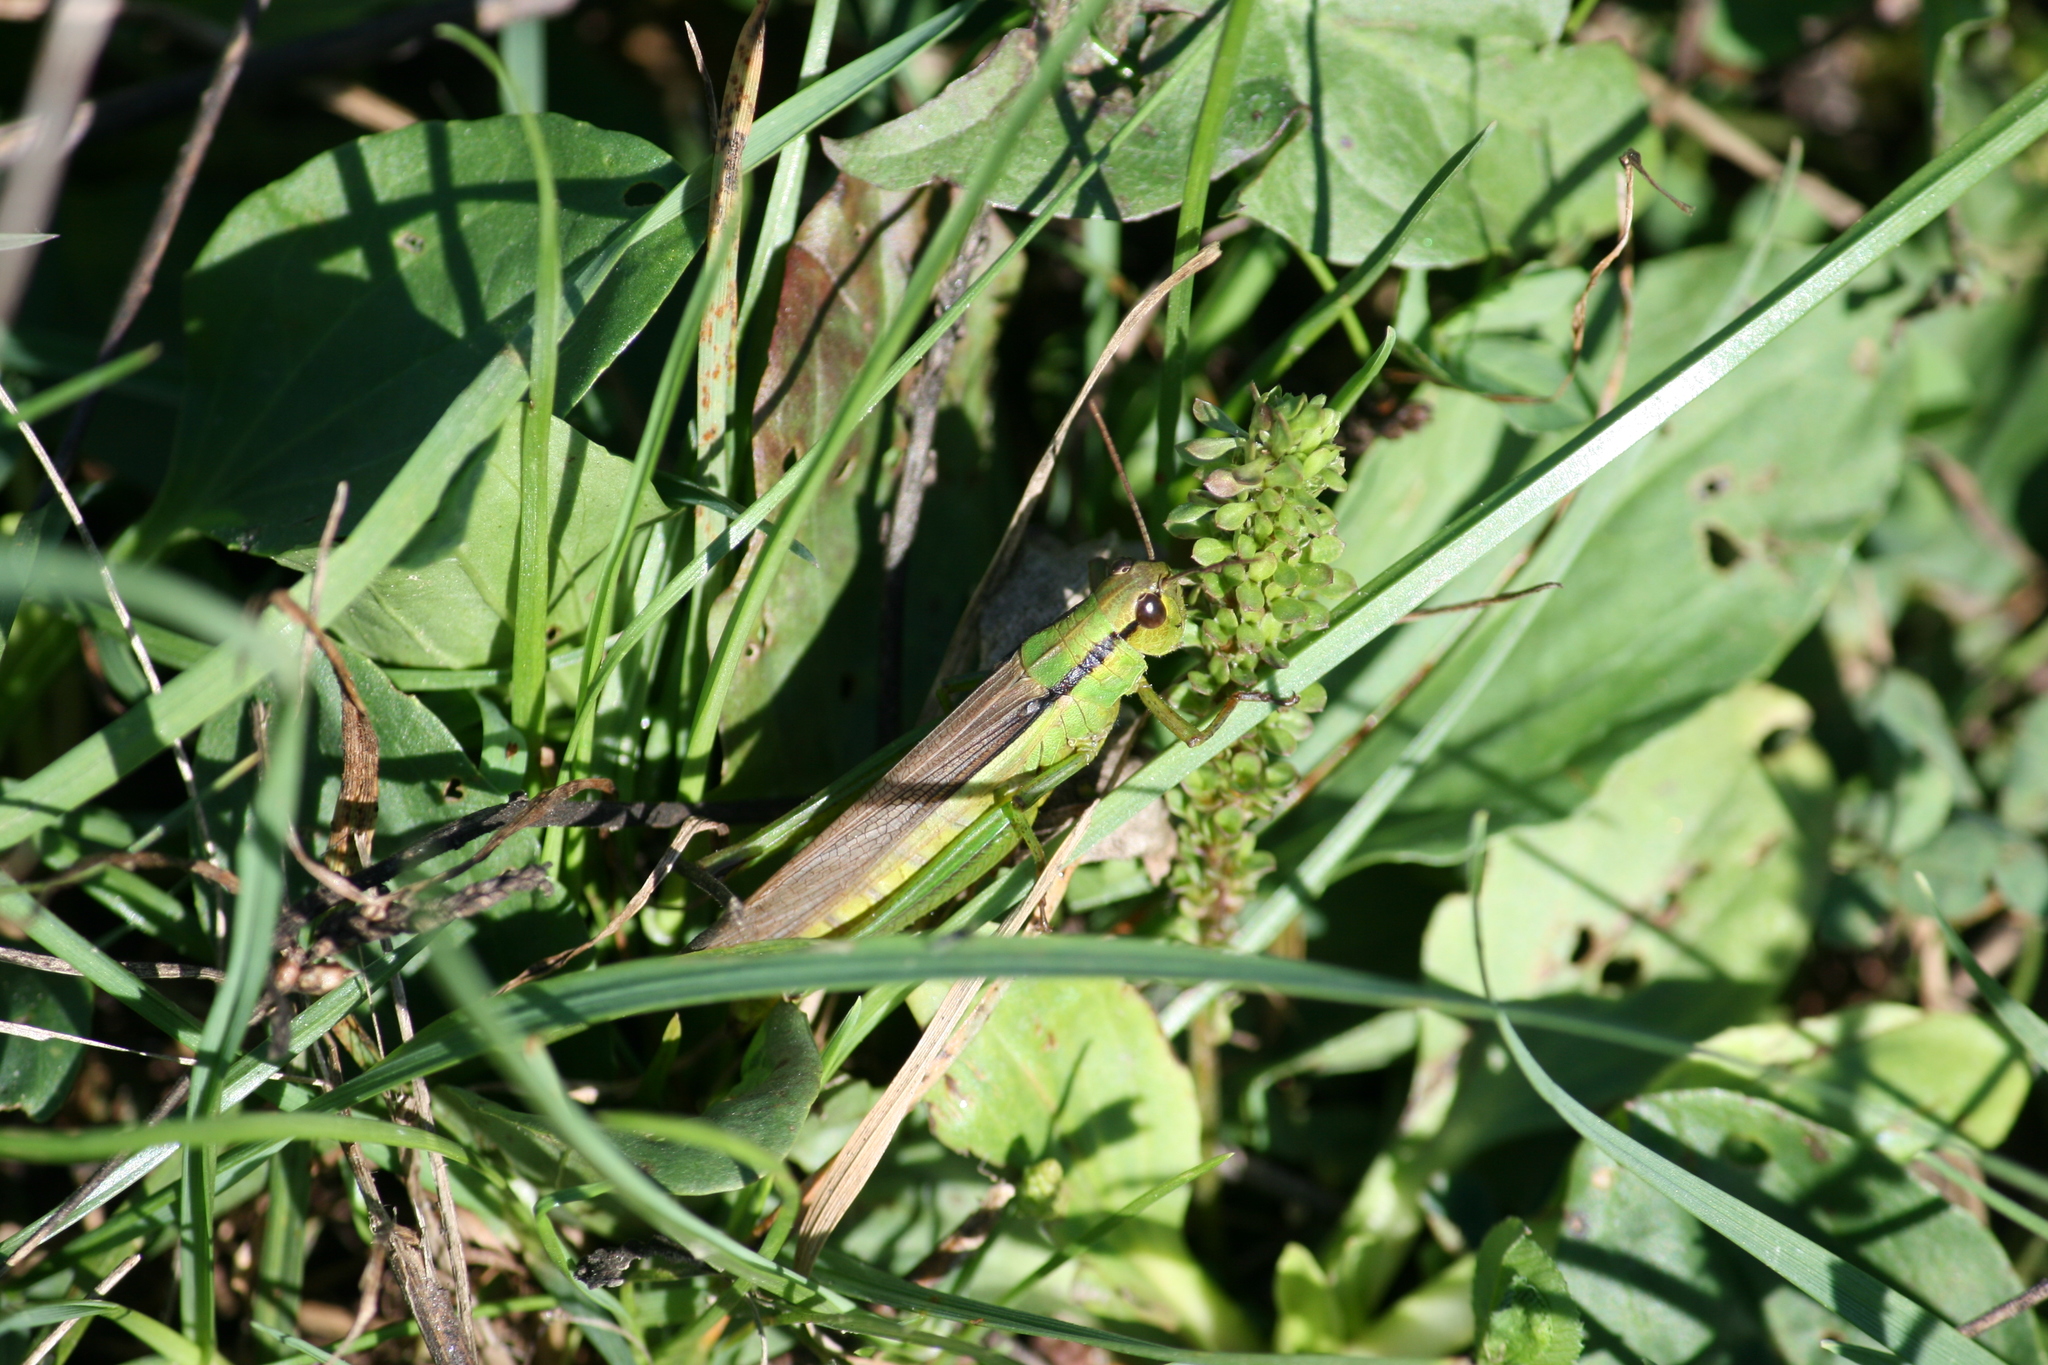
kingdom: Animalia
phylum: Arthropoda
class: Insecta
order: Orthoptera
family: Acrididae
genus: Mecostethus
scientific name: Mecostethus parapleurus
